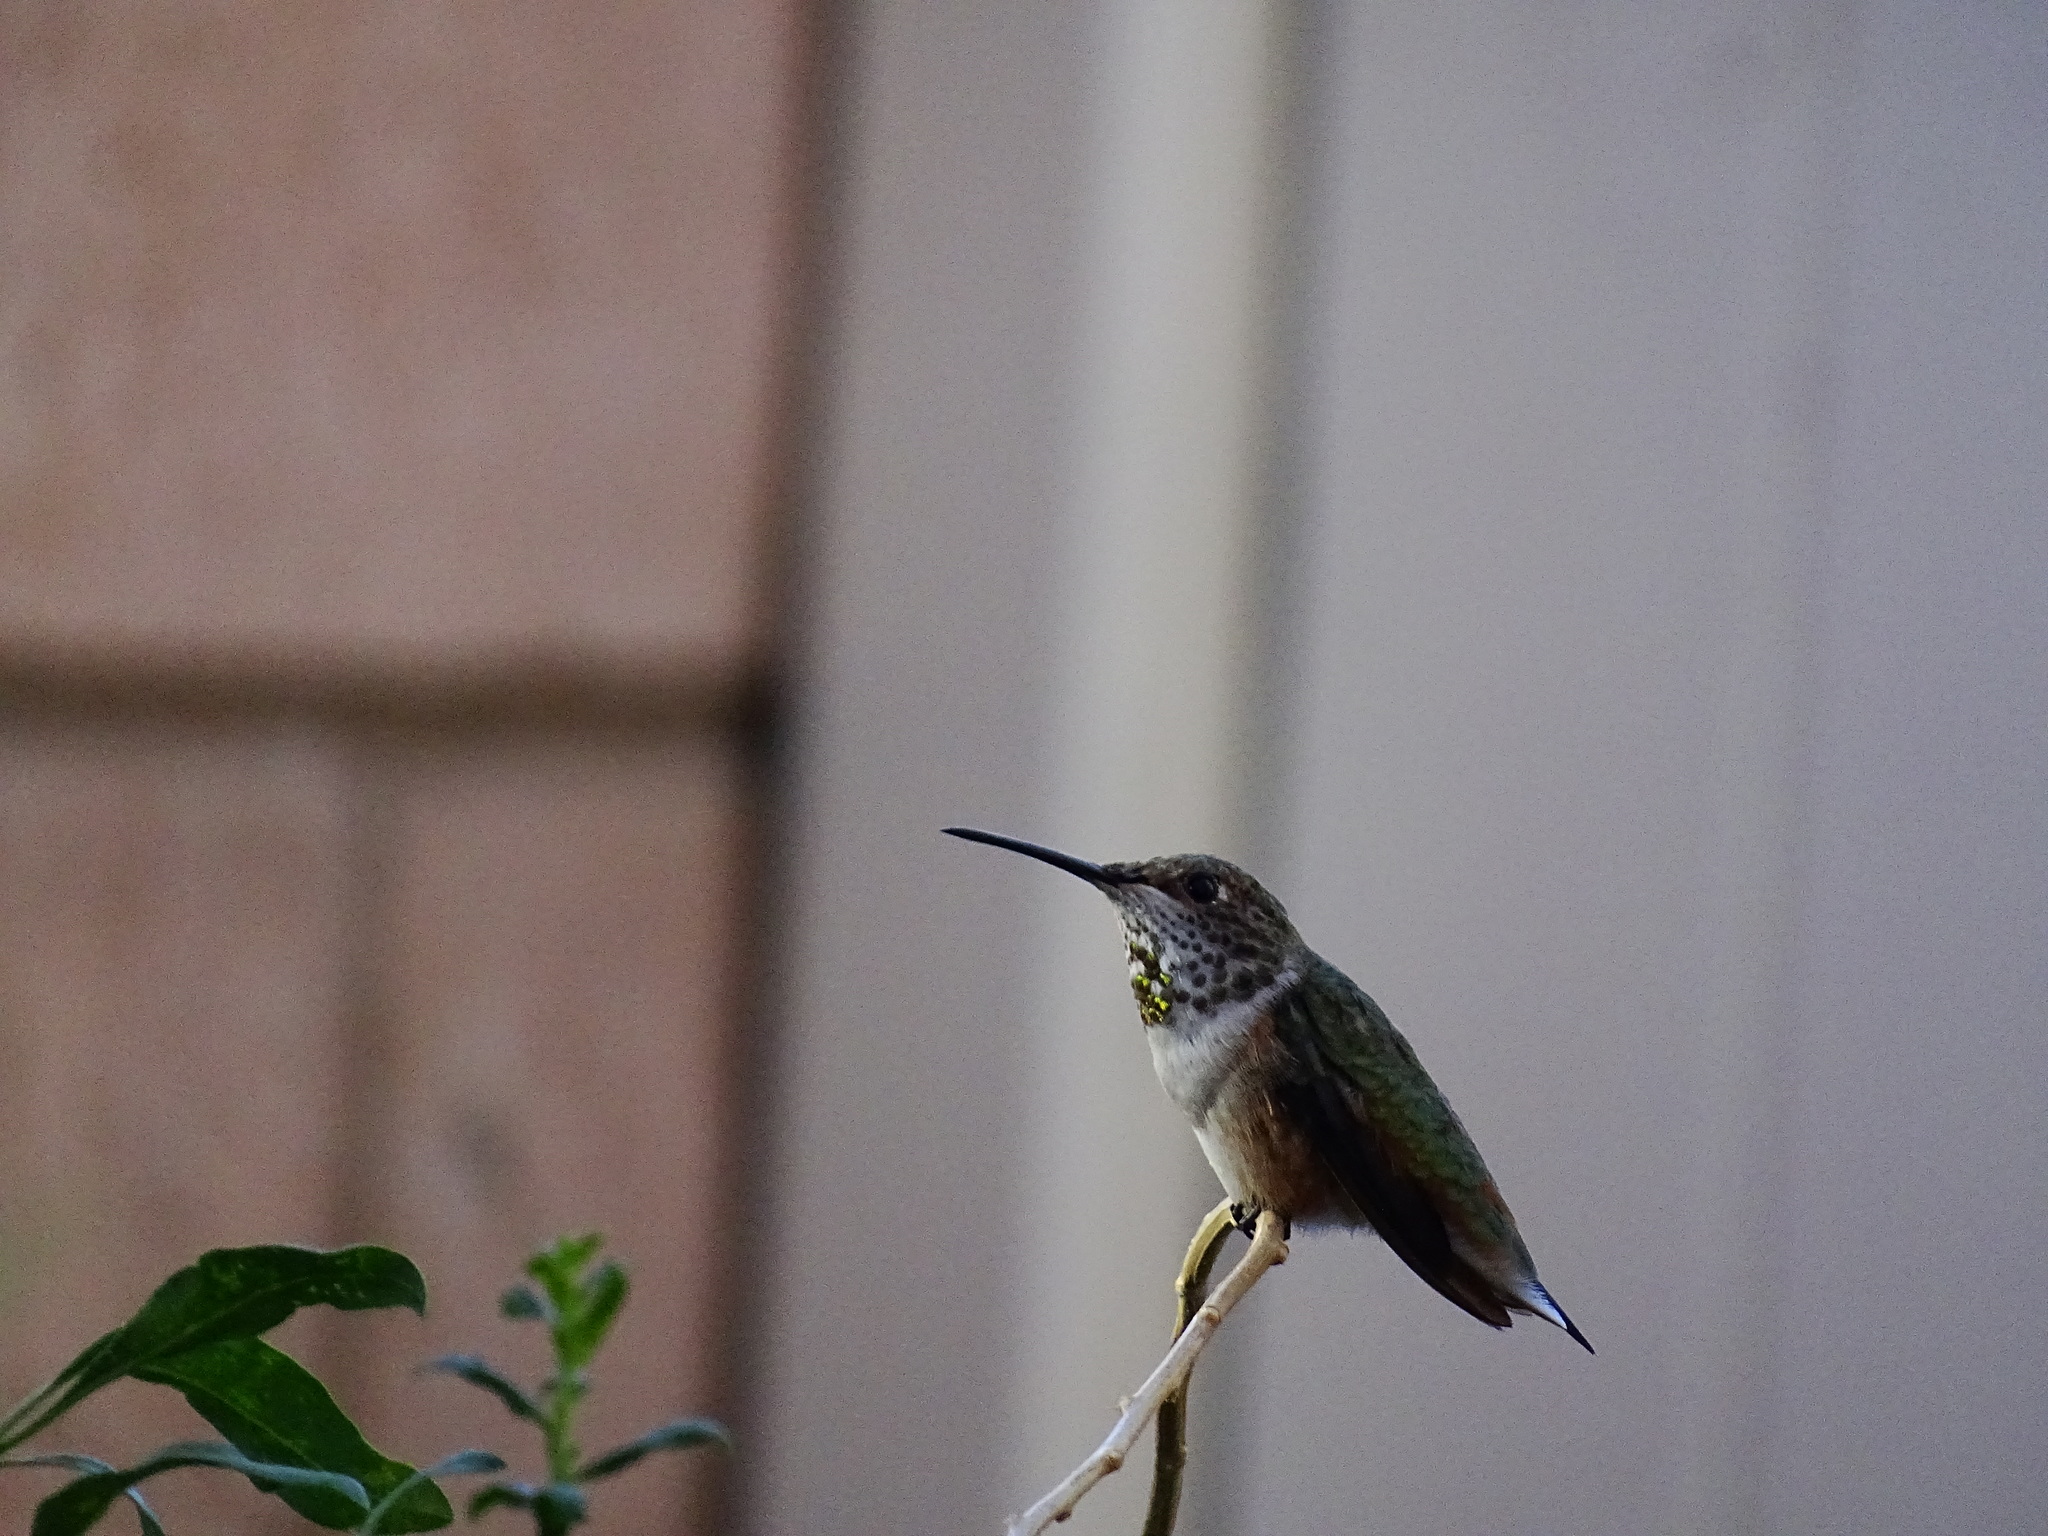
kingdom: Animalia
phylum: Chordata
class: Aves
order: Apodiformes
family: Trochilidae
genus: Selasphorus
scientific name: Selasphorus
